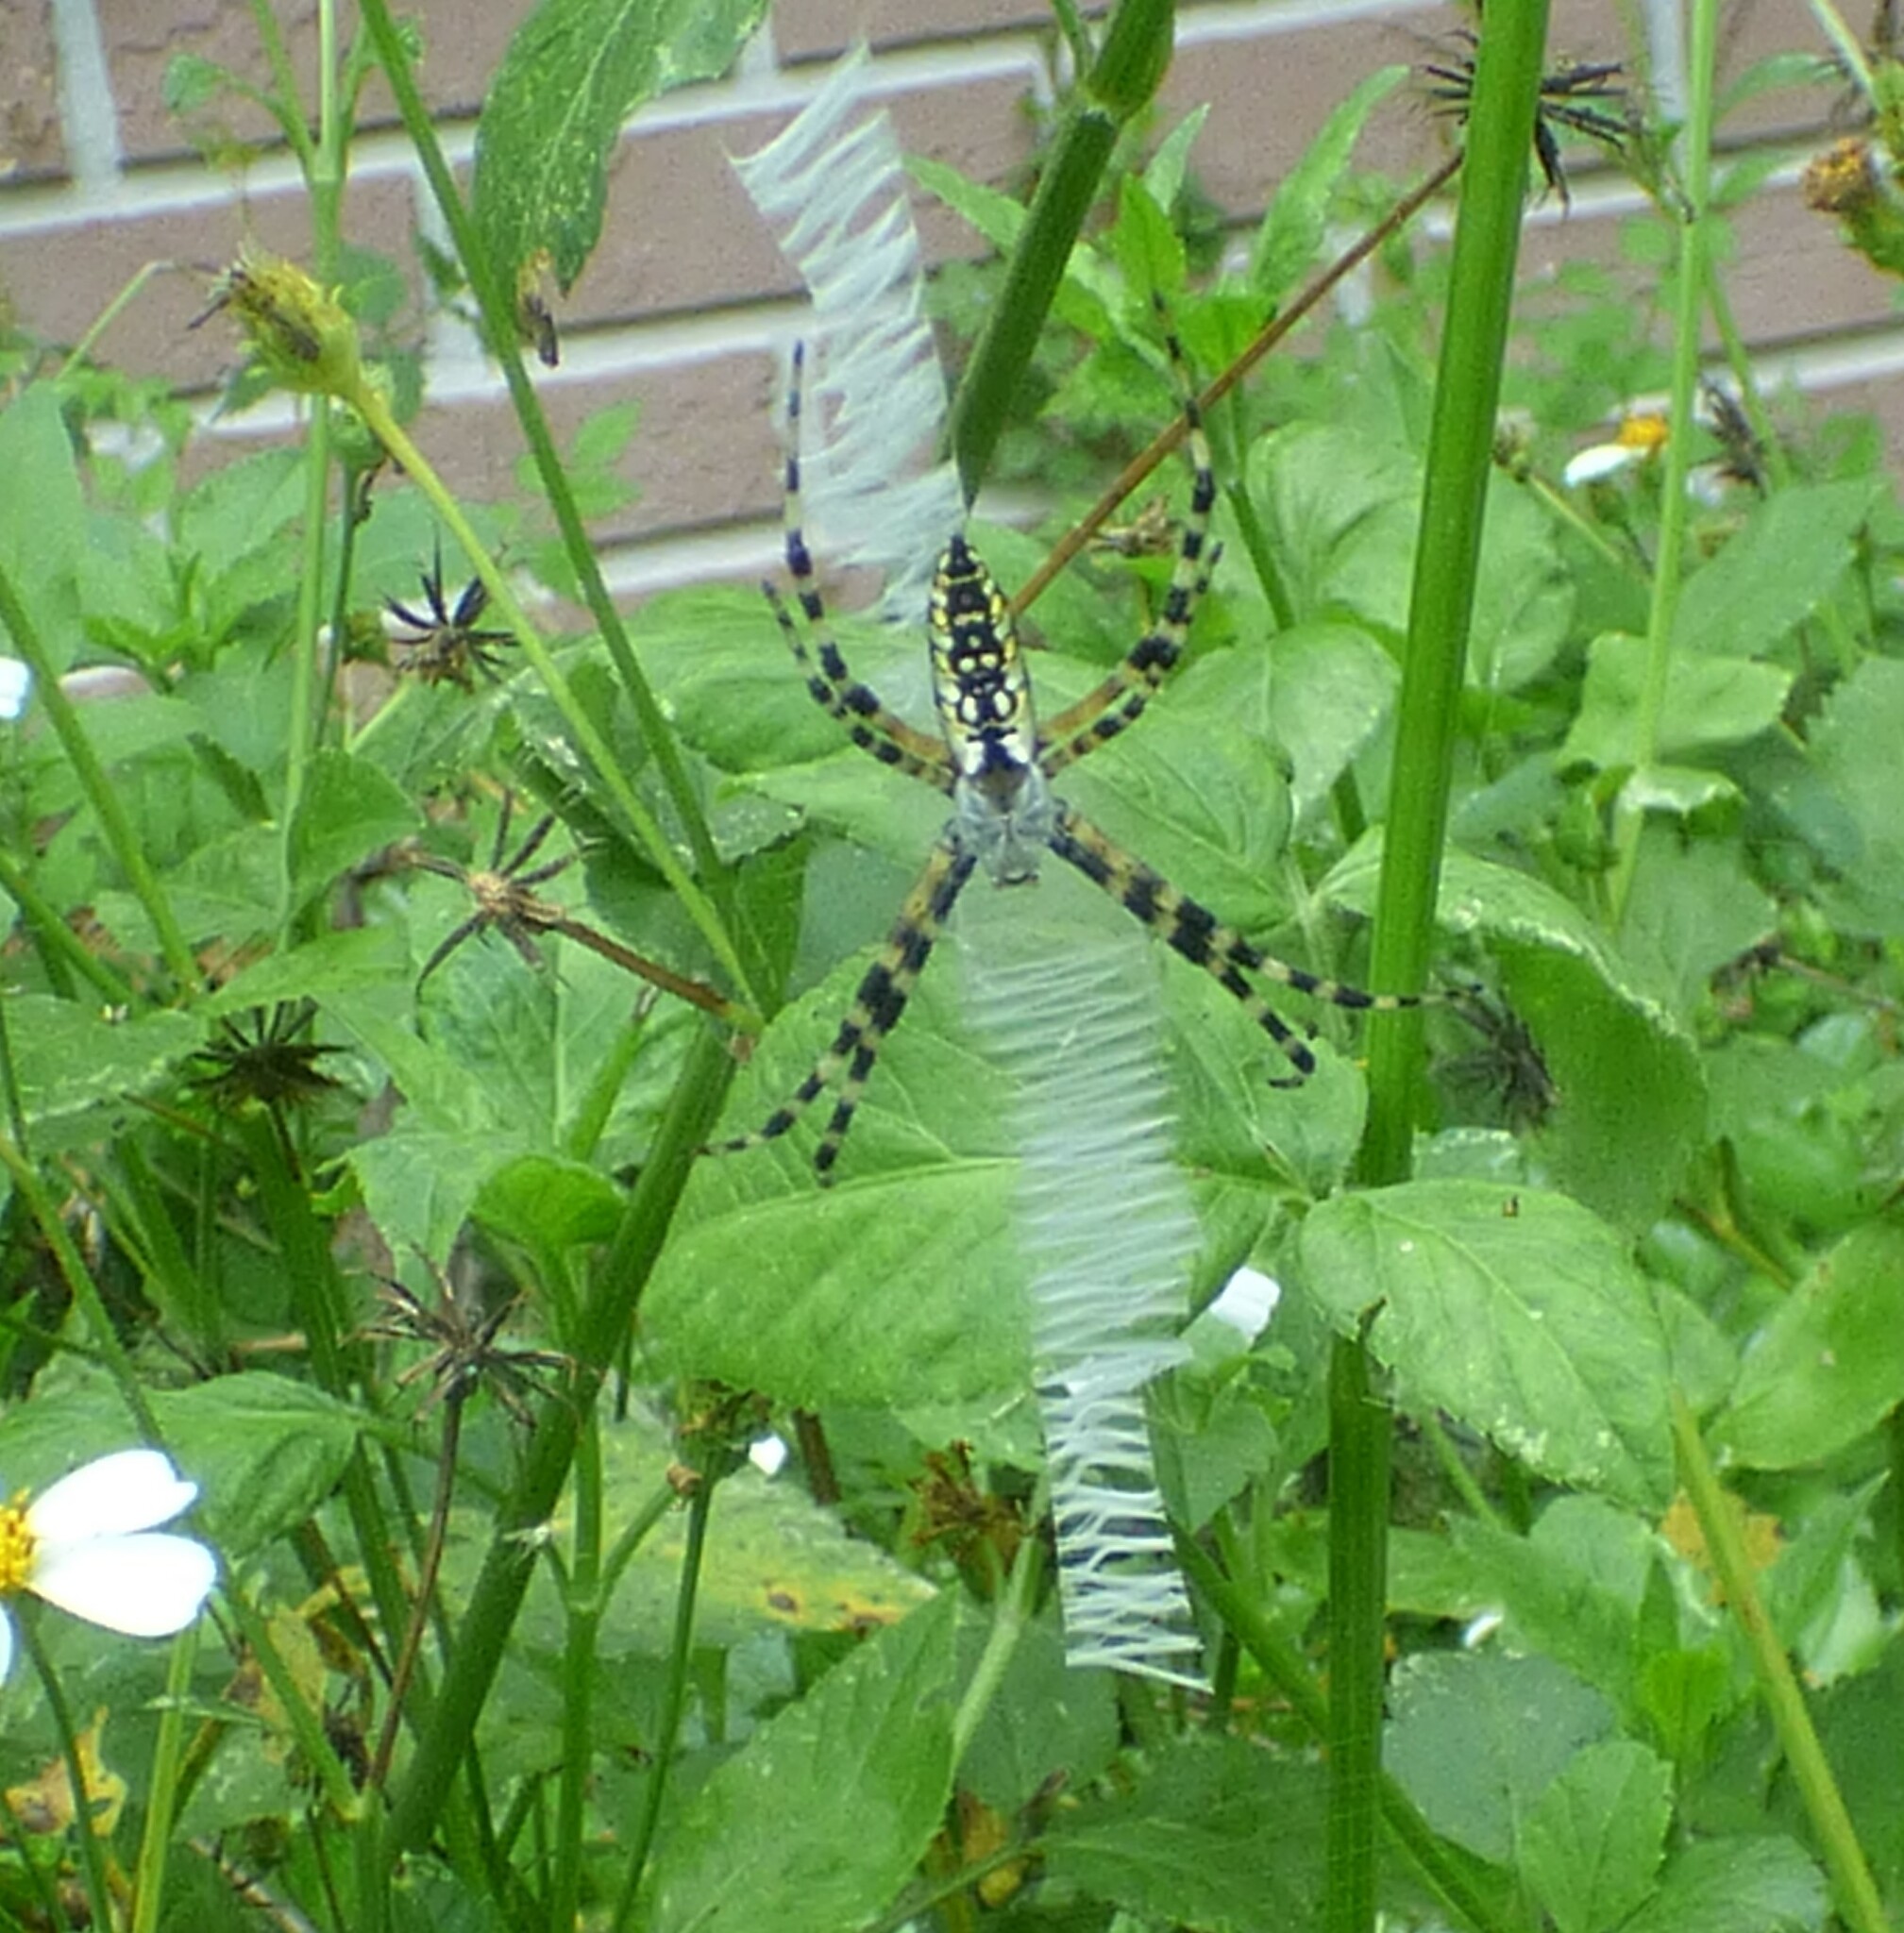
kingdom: Animalia
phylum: Arthropoda
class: Arachnida
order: Araneae
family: Araneidae
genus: Argiope
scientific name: Argiope aurantia
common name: Orb weavers
